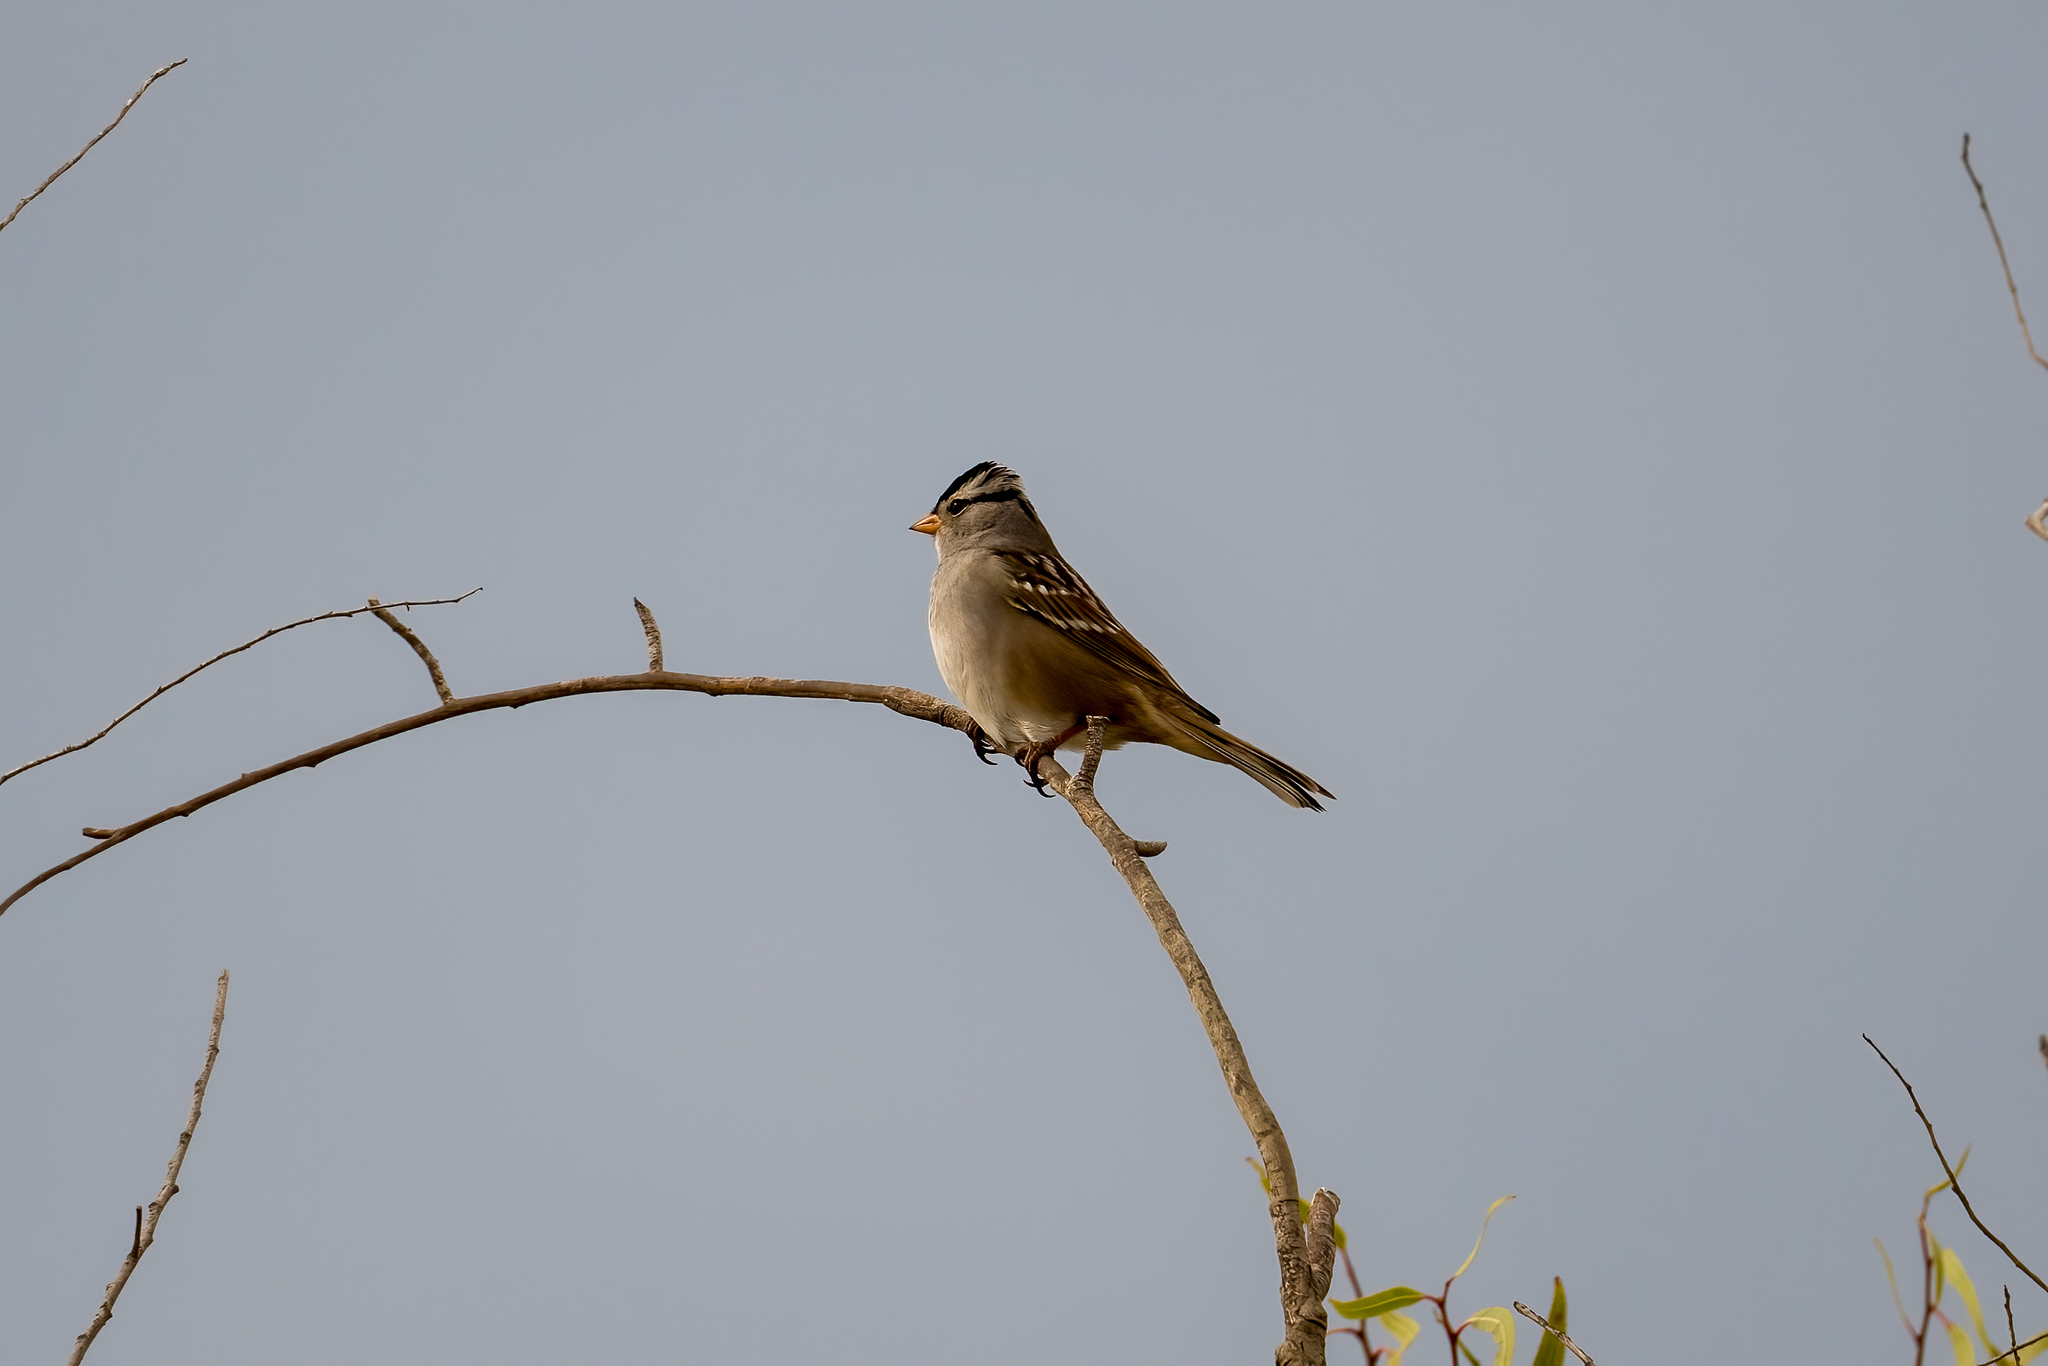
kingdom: Animalia
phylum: Chordata
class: Aves
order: Passeriformes
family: Passerellidae
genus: Zonotrichia
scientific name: Zonotrichia leucophrys
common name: White-crowned sparrow
